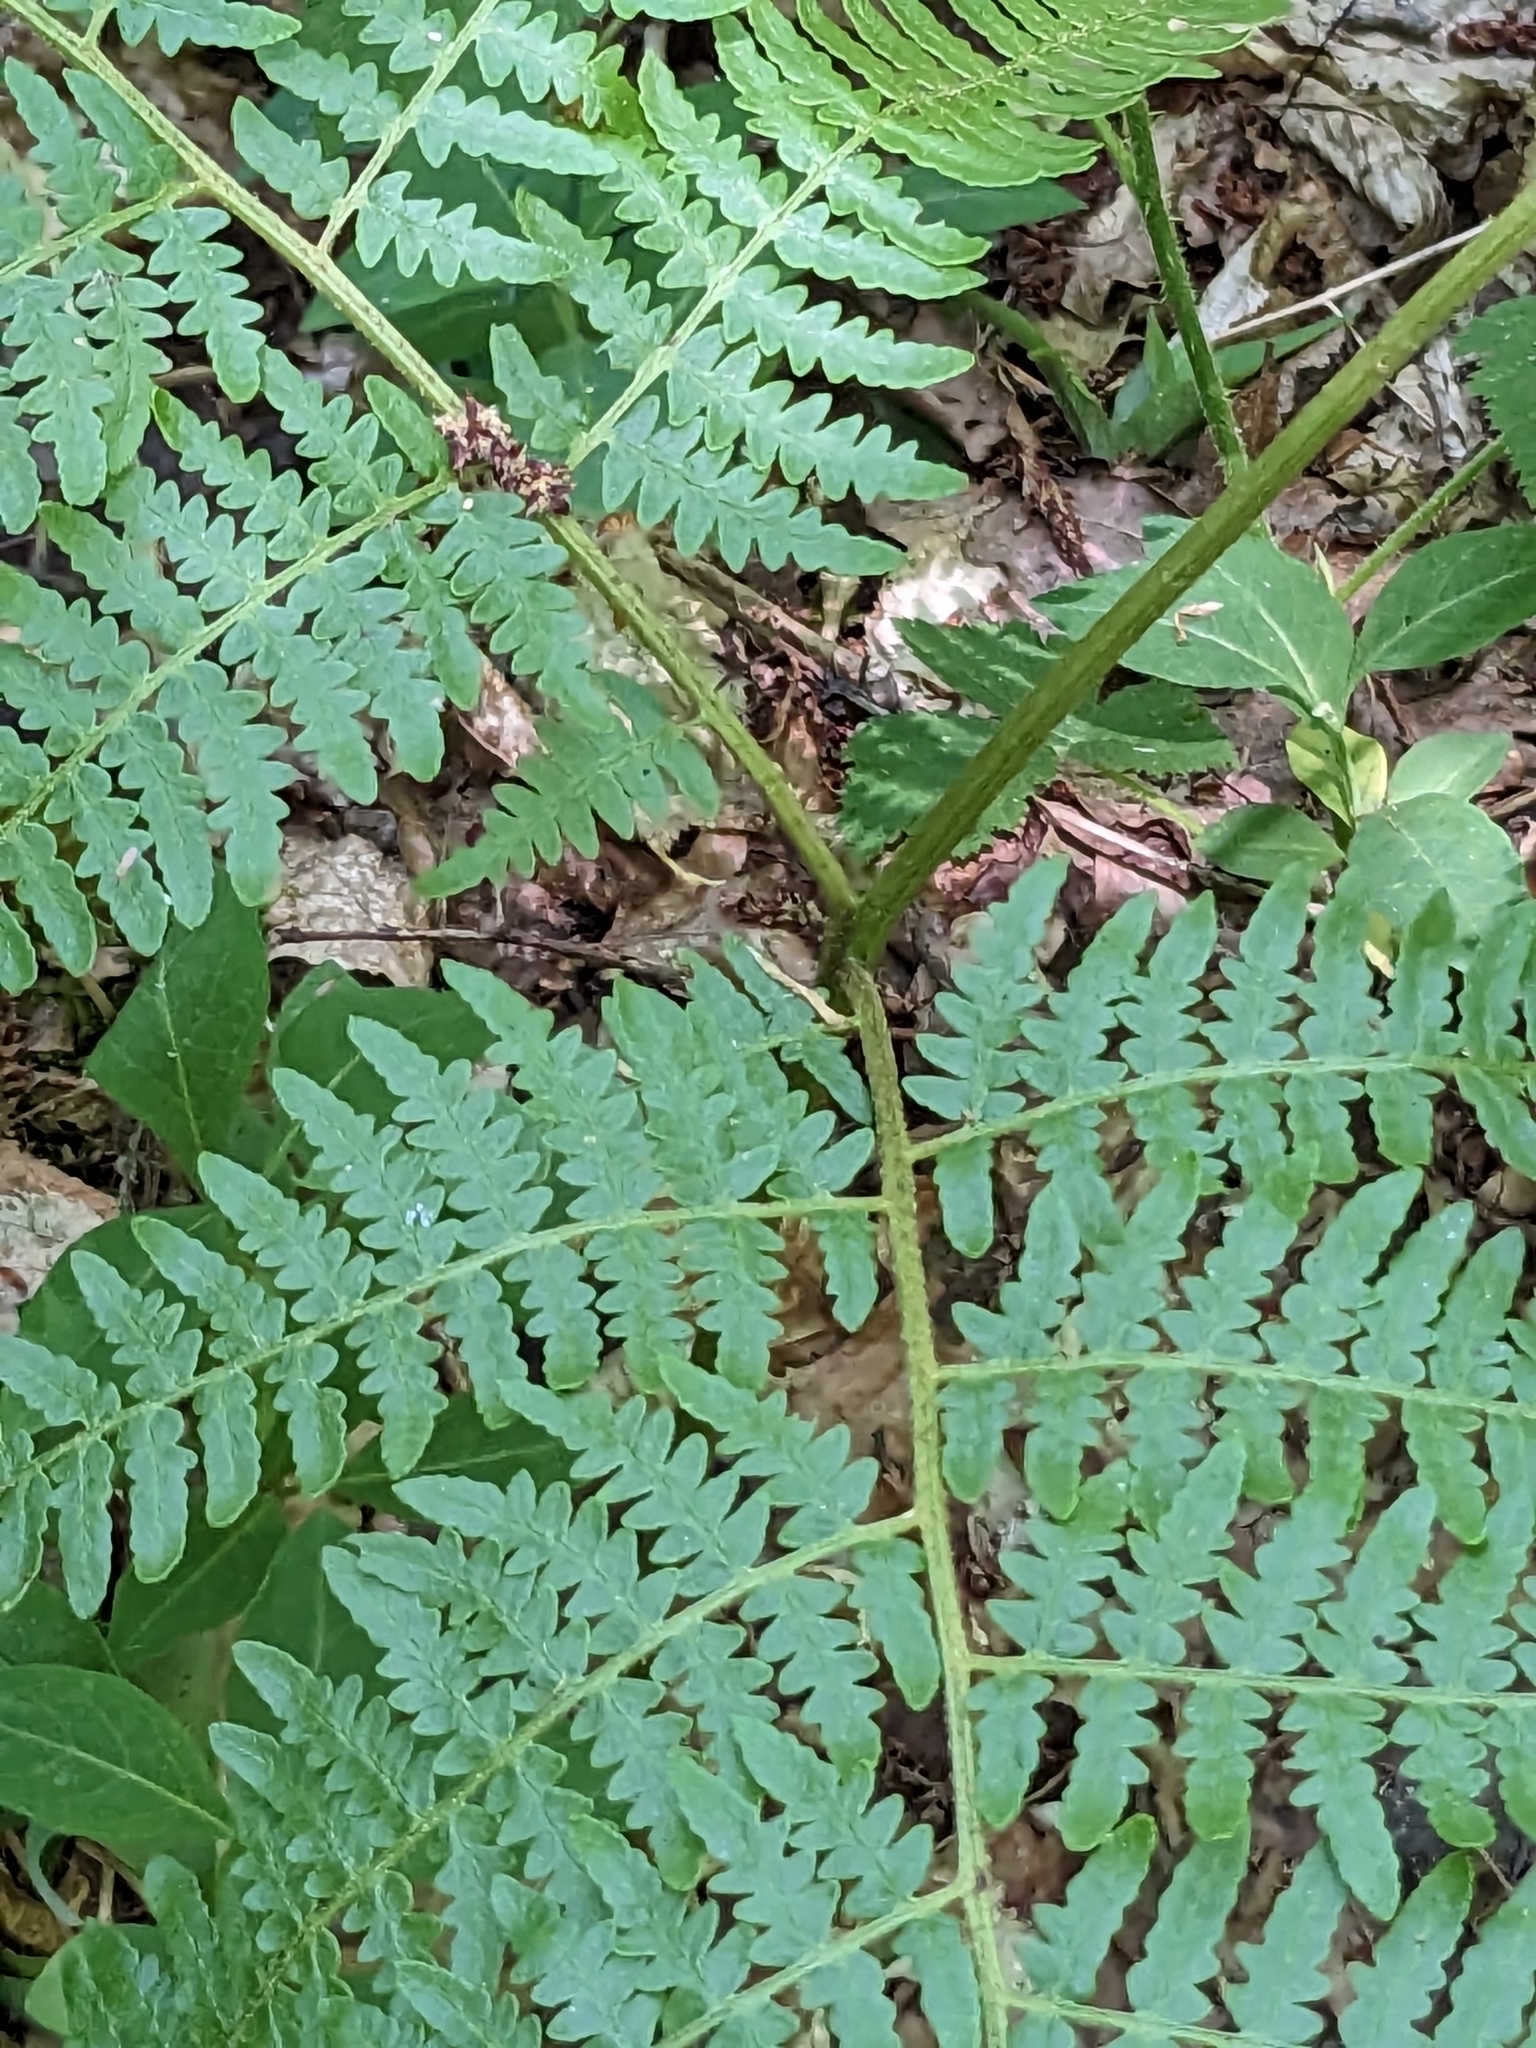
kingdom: Plantae
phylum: Tracheophyta
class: Polypodiopsida
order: Polypodiales
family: Dennstaedtiaceae
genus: Pteridium
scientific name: Pteridium aquilinum
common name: Bracken
